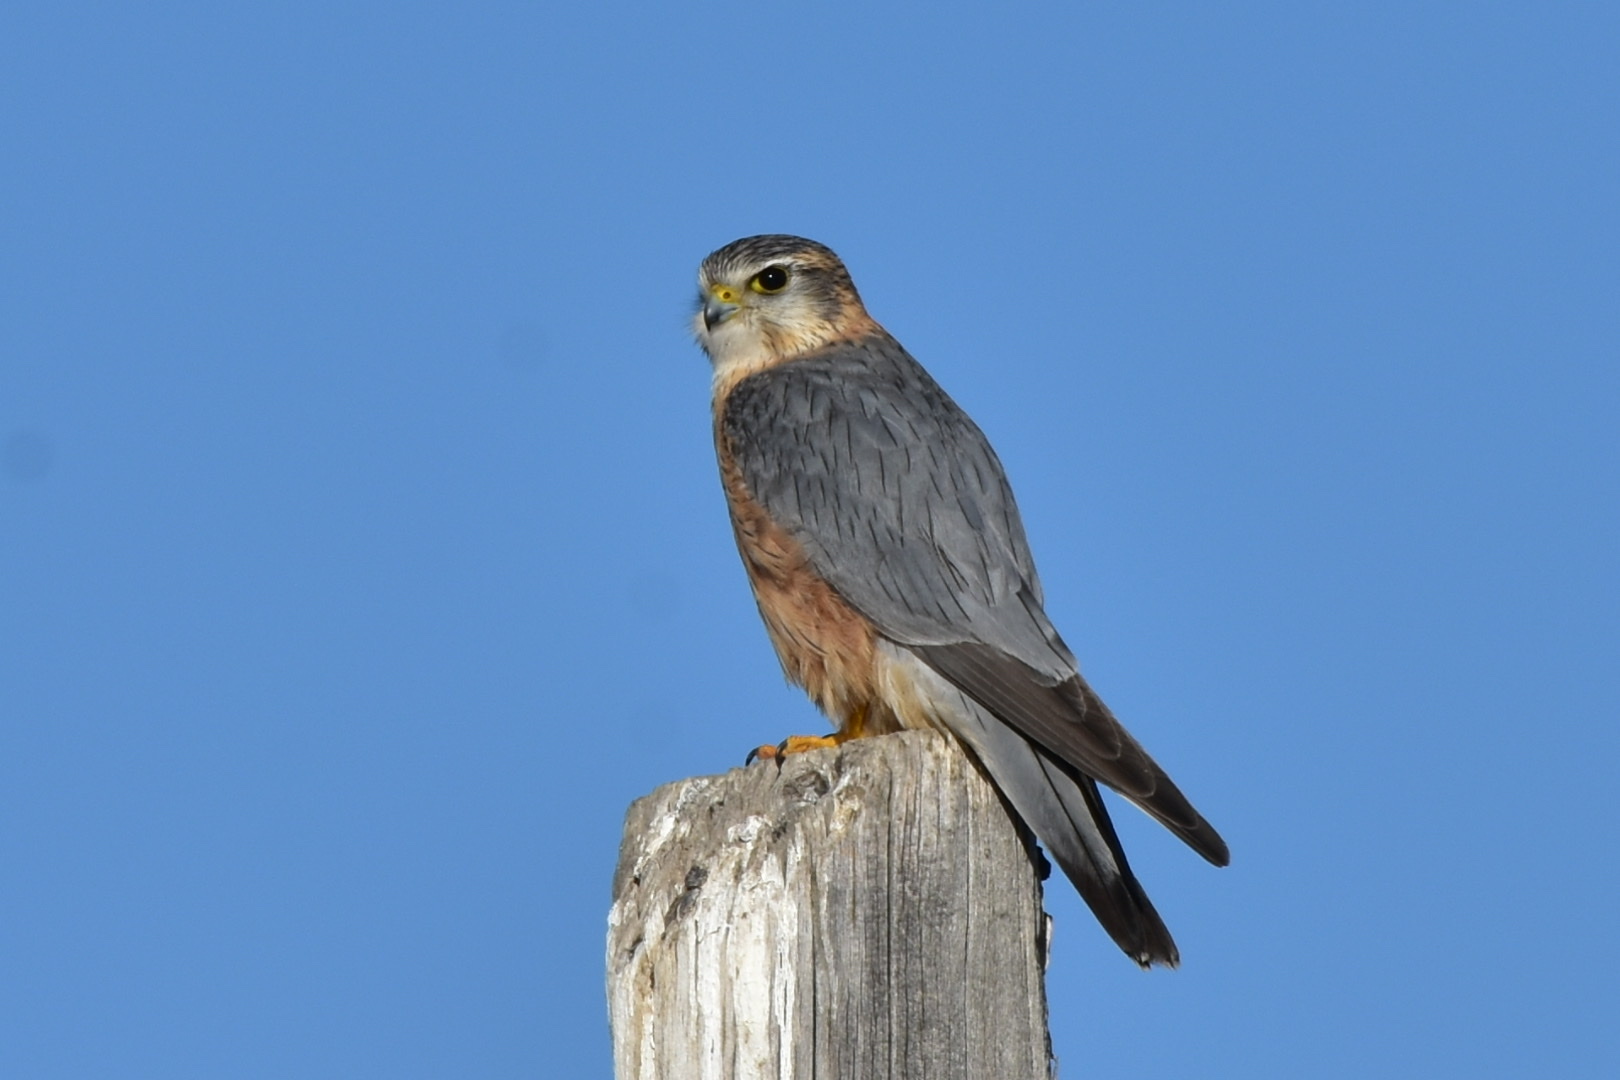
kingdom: Animalia
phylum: Chordata
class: Aves
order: Falconiformes
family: Falconidae
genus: Falco
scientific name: Falco columbarius
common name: Merlin
